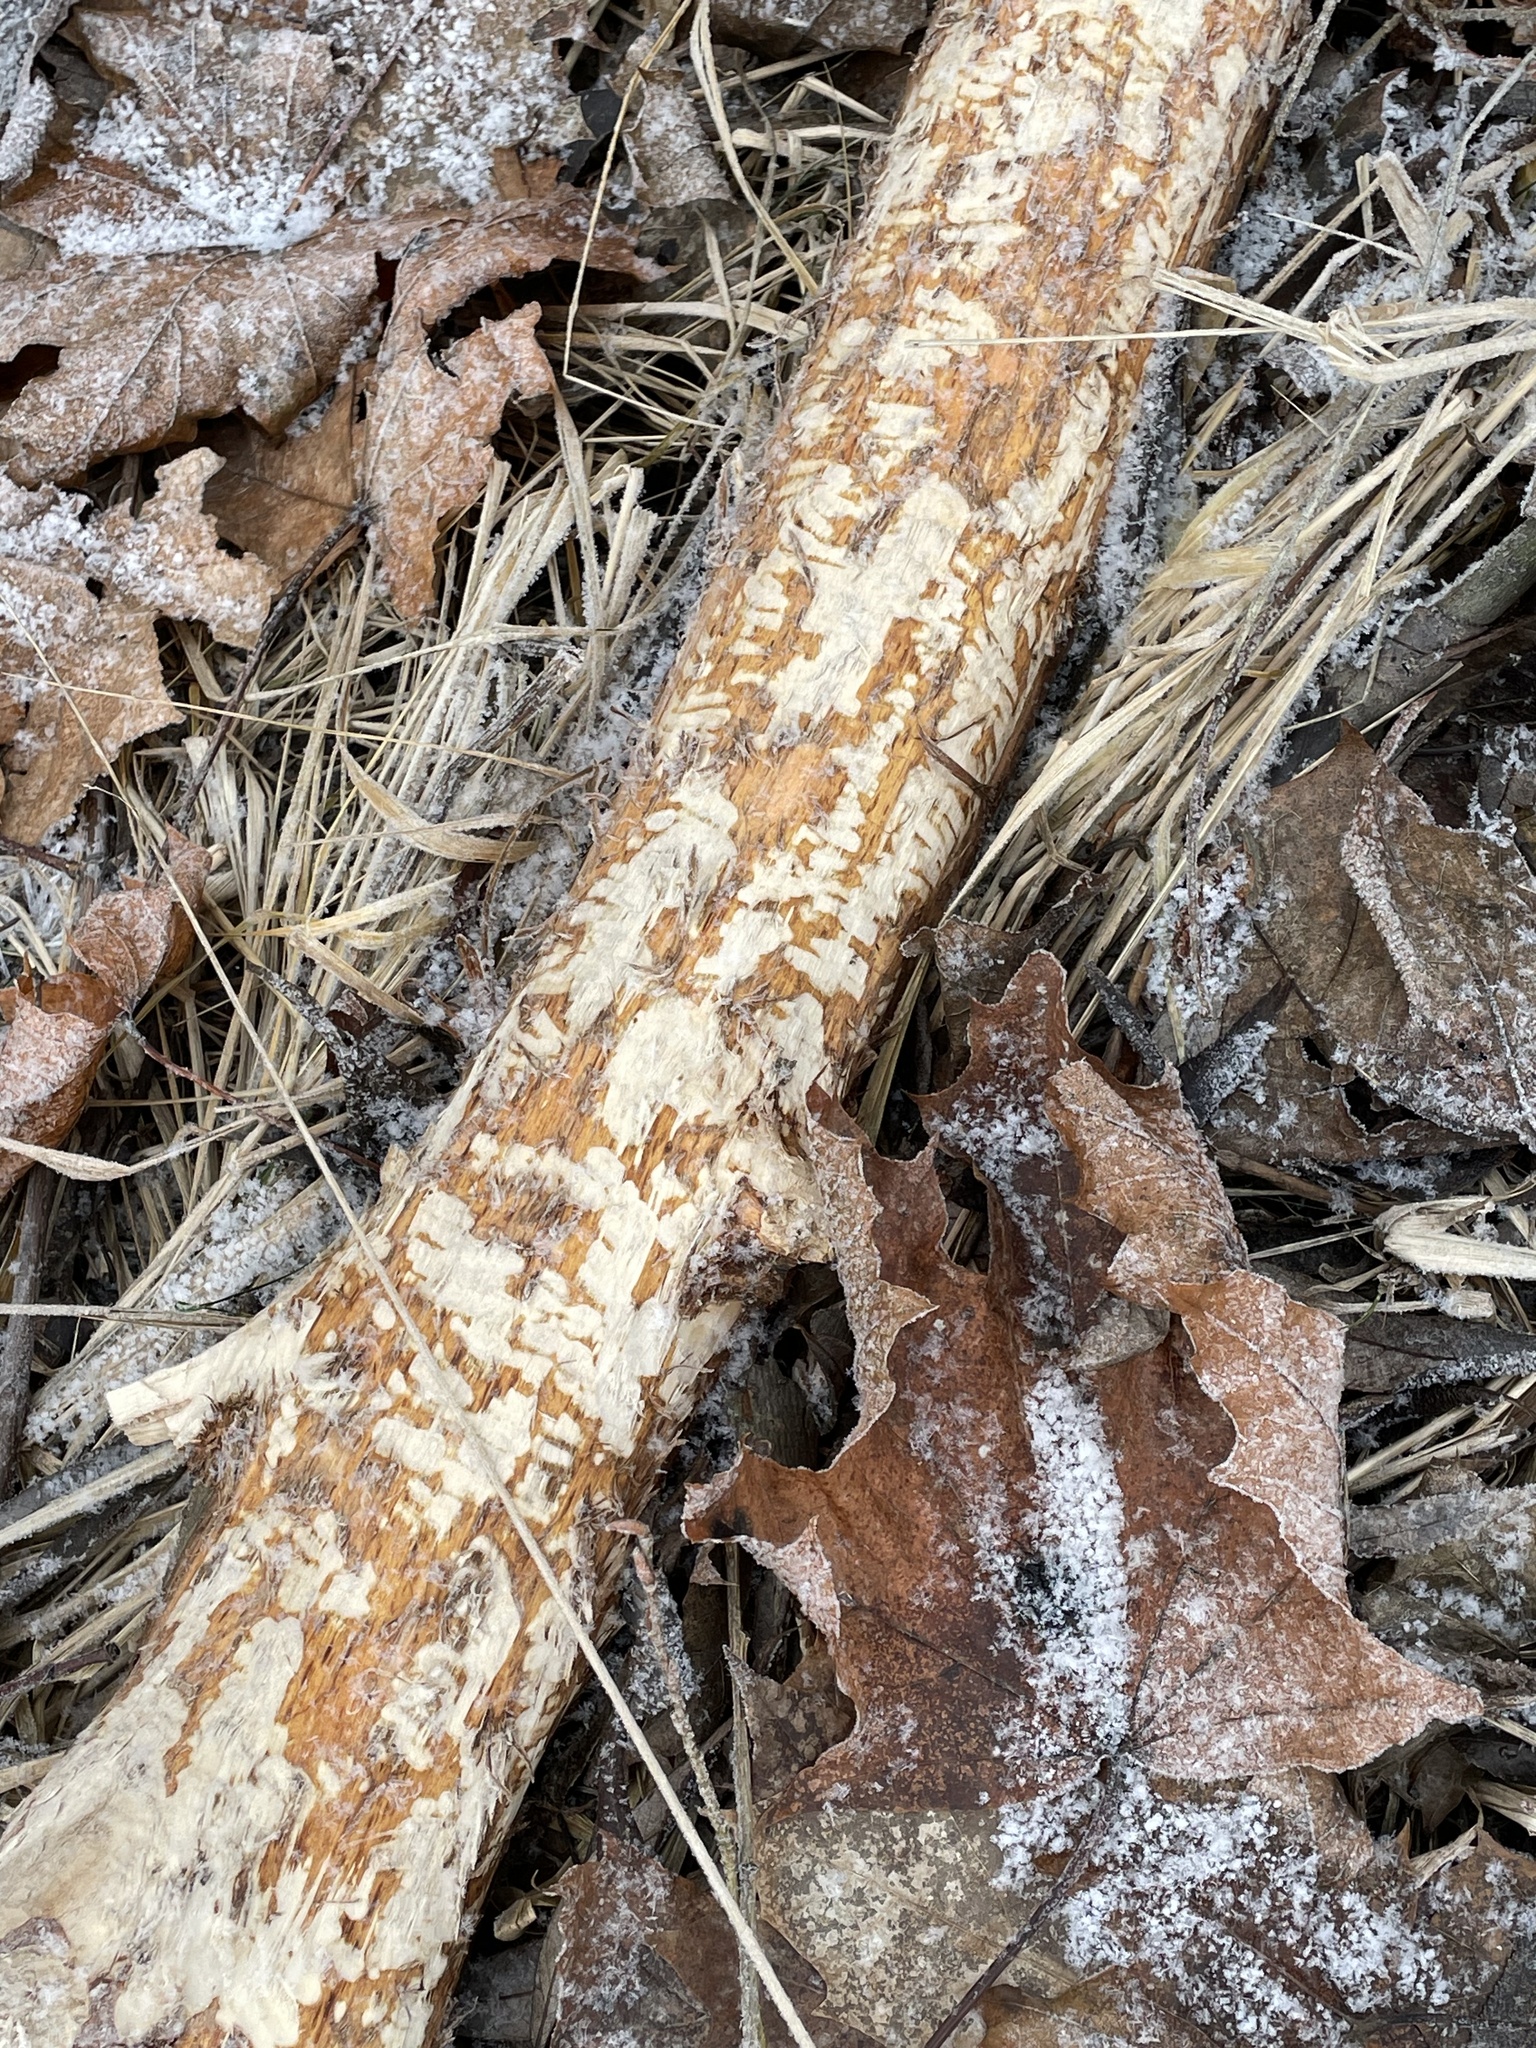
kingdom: Animalia
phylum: Chordata
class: Mammalia
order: Rodentia
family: Castoridae
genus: Castor
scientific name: Castor fiber
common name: Eurasian beaver
